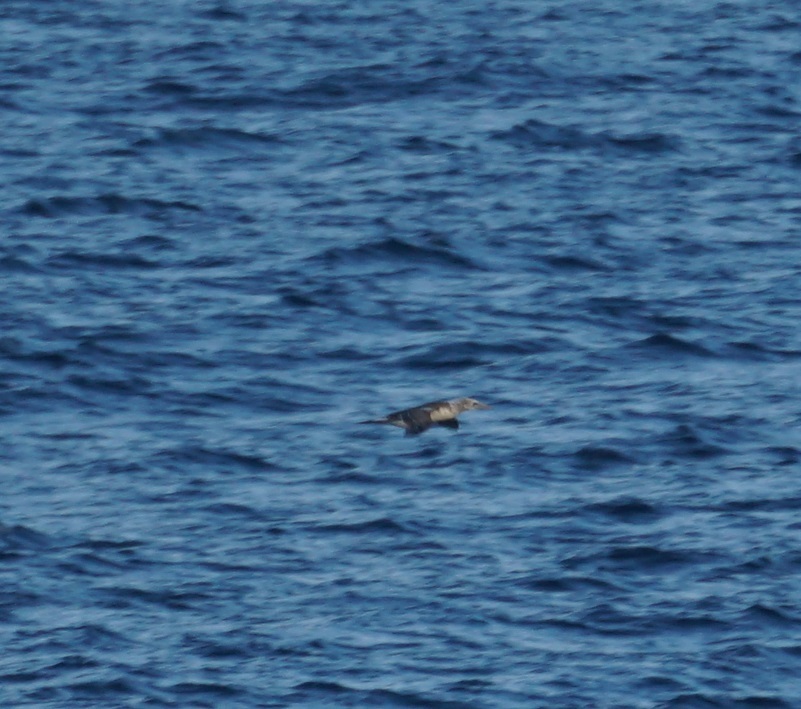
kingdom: Animalia
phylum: Chordata
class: Aves
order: Suliformes
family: Sulidae
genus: Morus
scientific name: Morus serrator
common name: Australasian gannet
